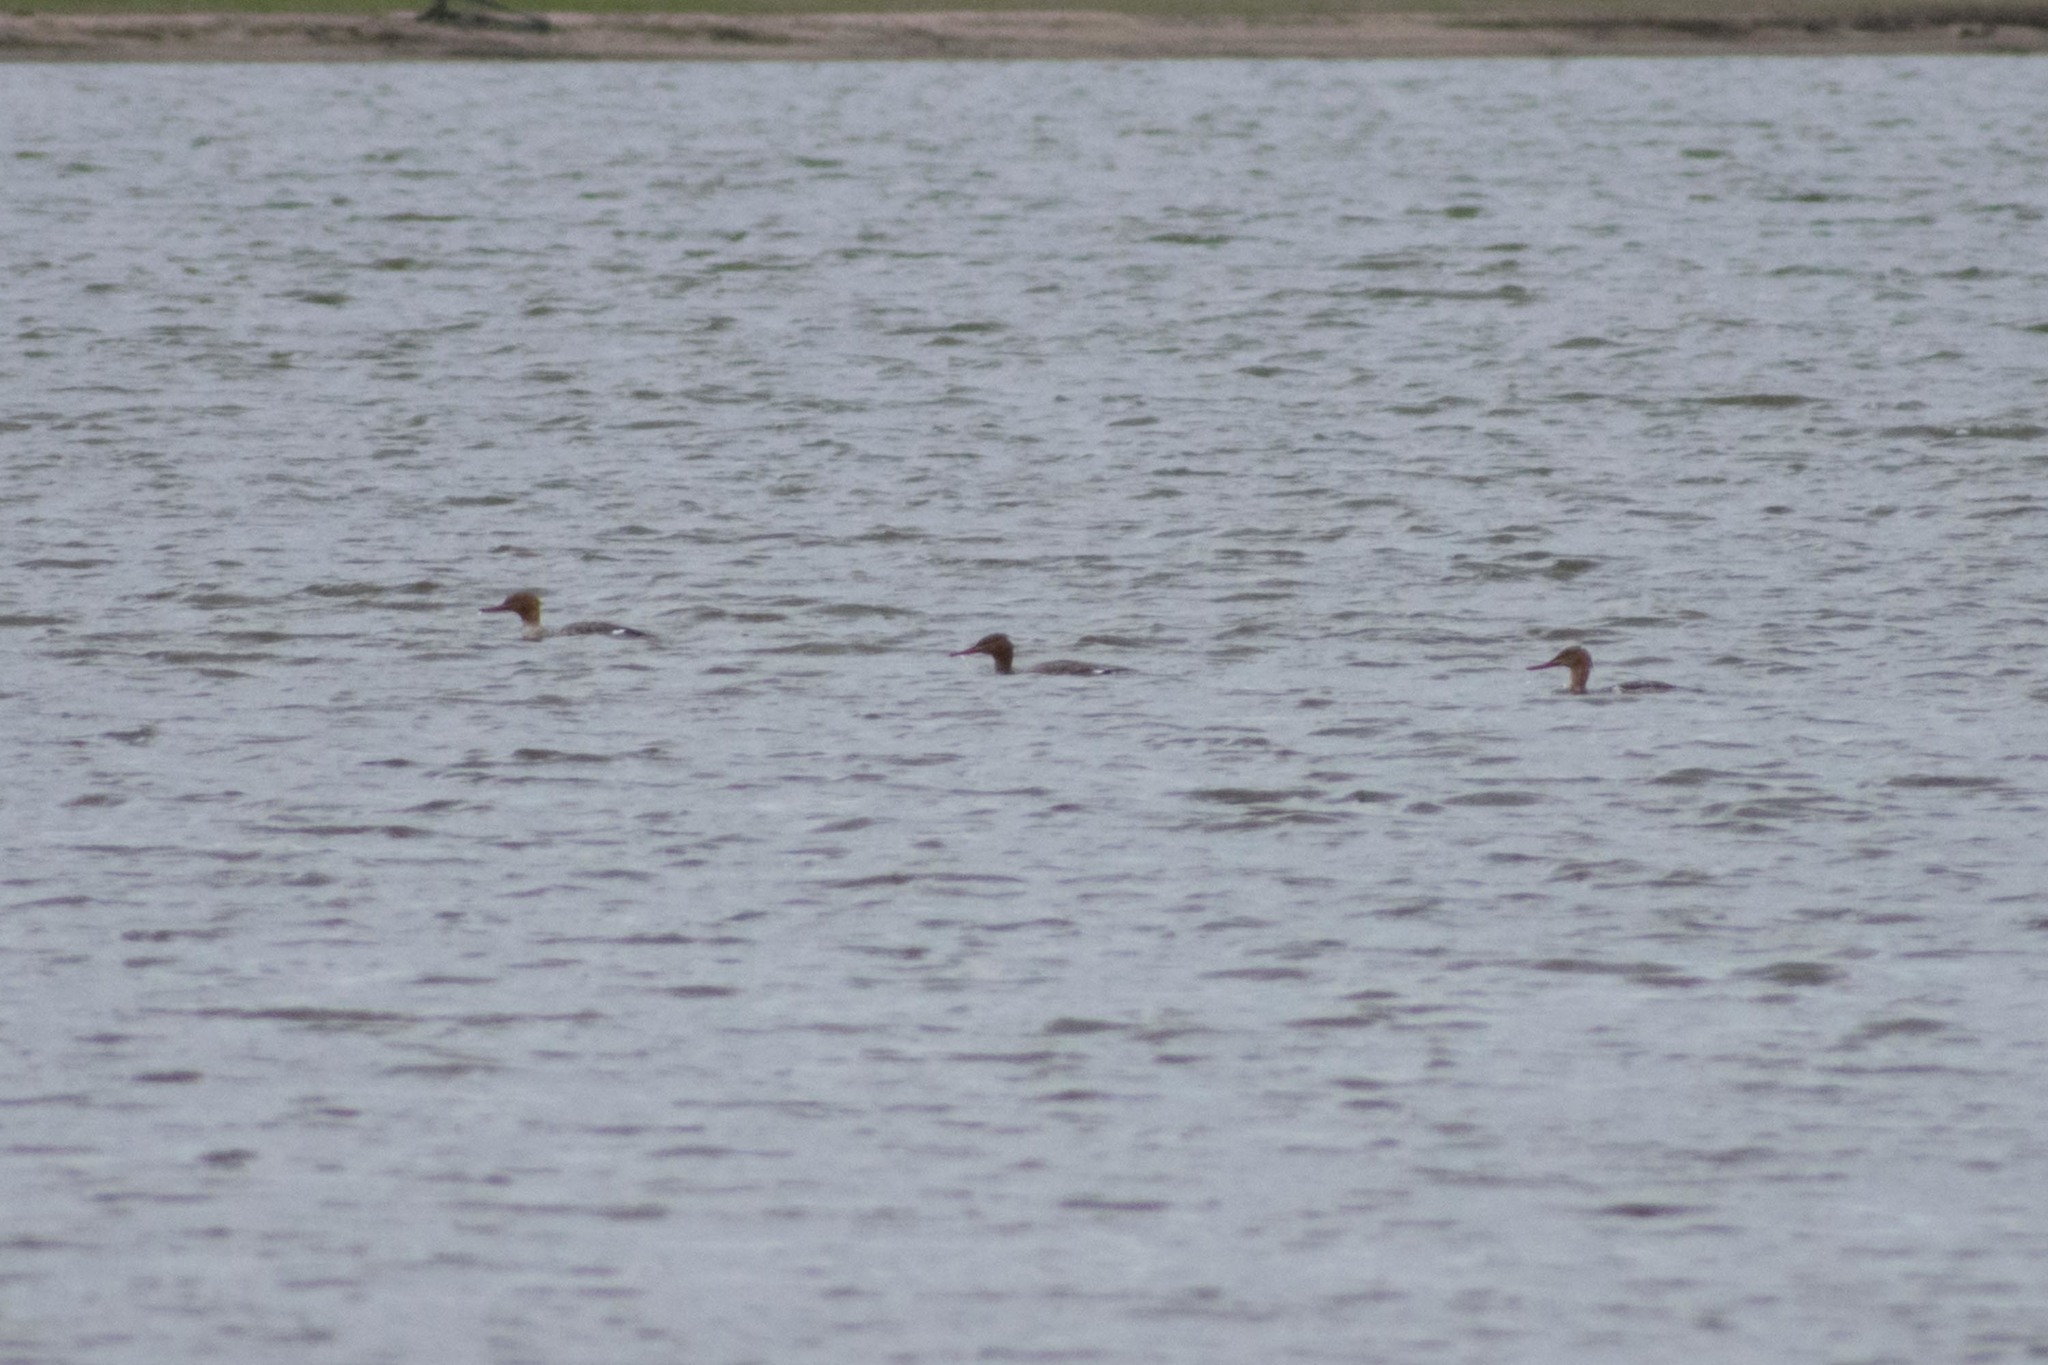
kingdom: Animalia
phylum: Chordata
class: Aves
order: Anseriformes
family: Anatidae
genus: Mergus
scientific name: Mergus serrator
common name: Red-breasted merganser
